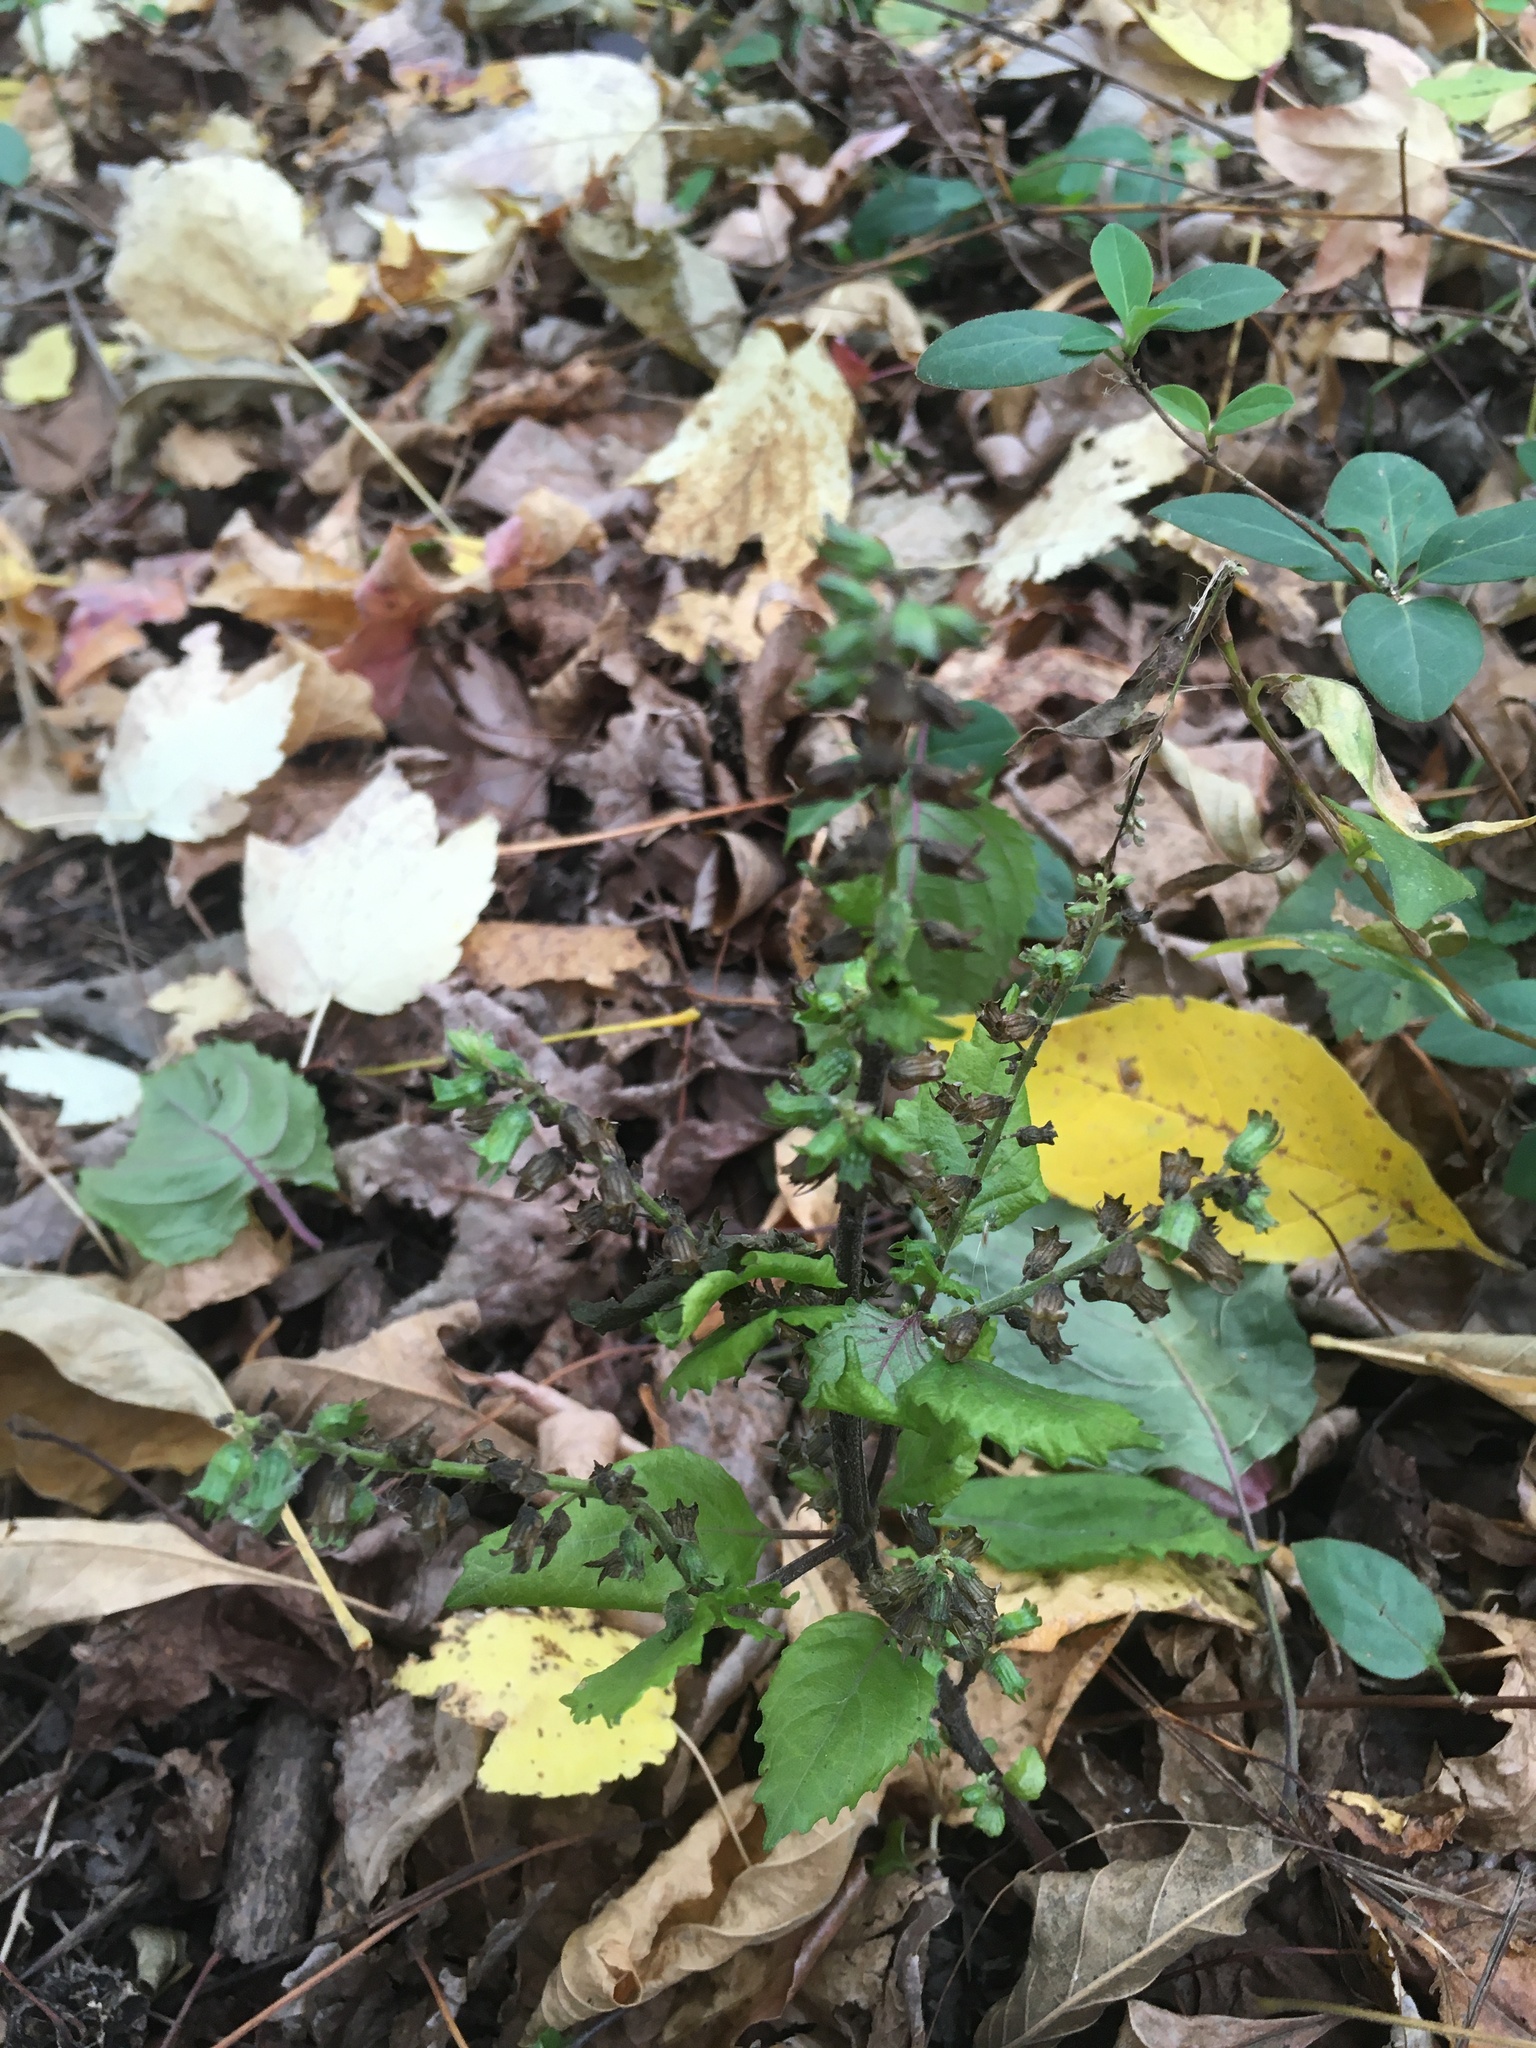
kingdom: Plantae
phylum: Tracheophyta
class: Magnoliopsida
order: Lamiales
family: Lamiaceae
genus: Perilla
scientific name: Perilla frutescens
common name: Perilla
